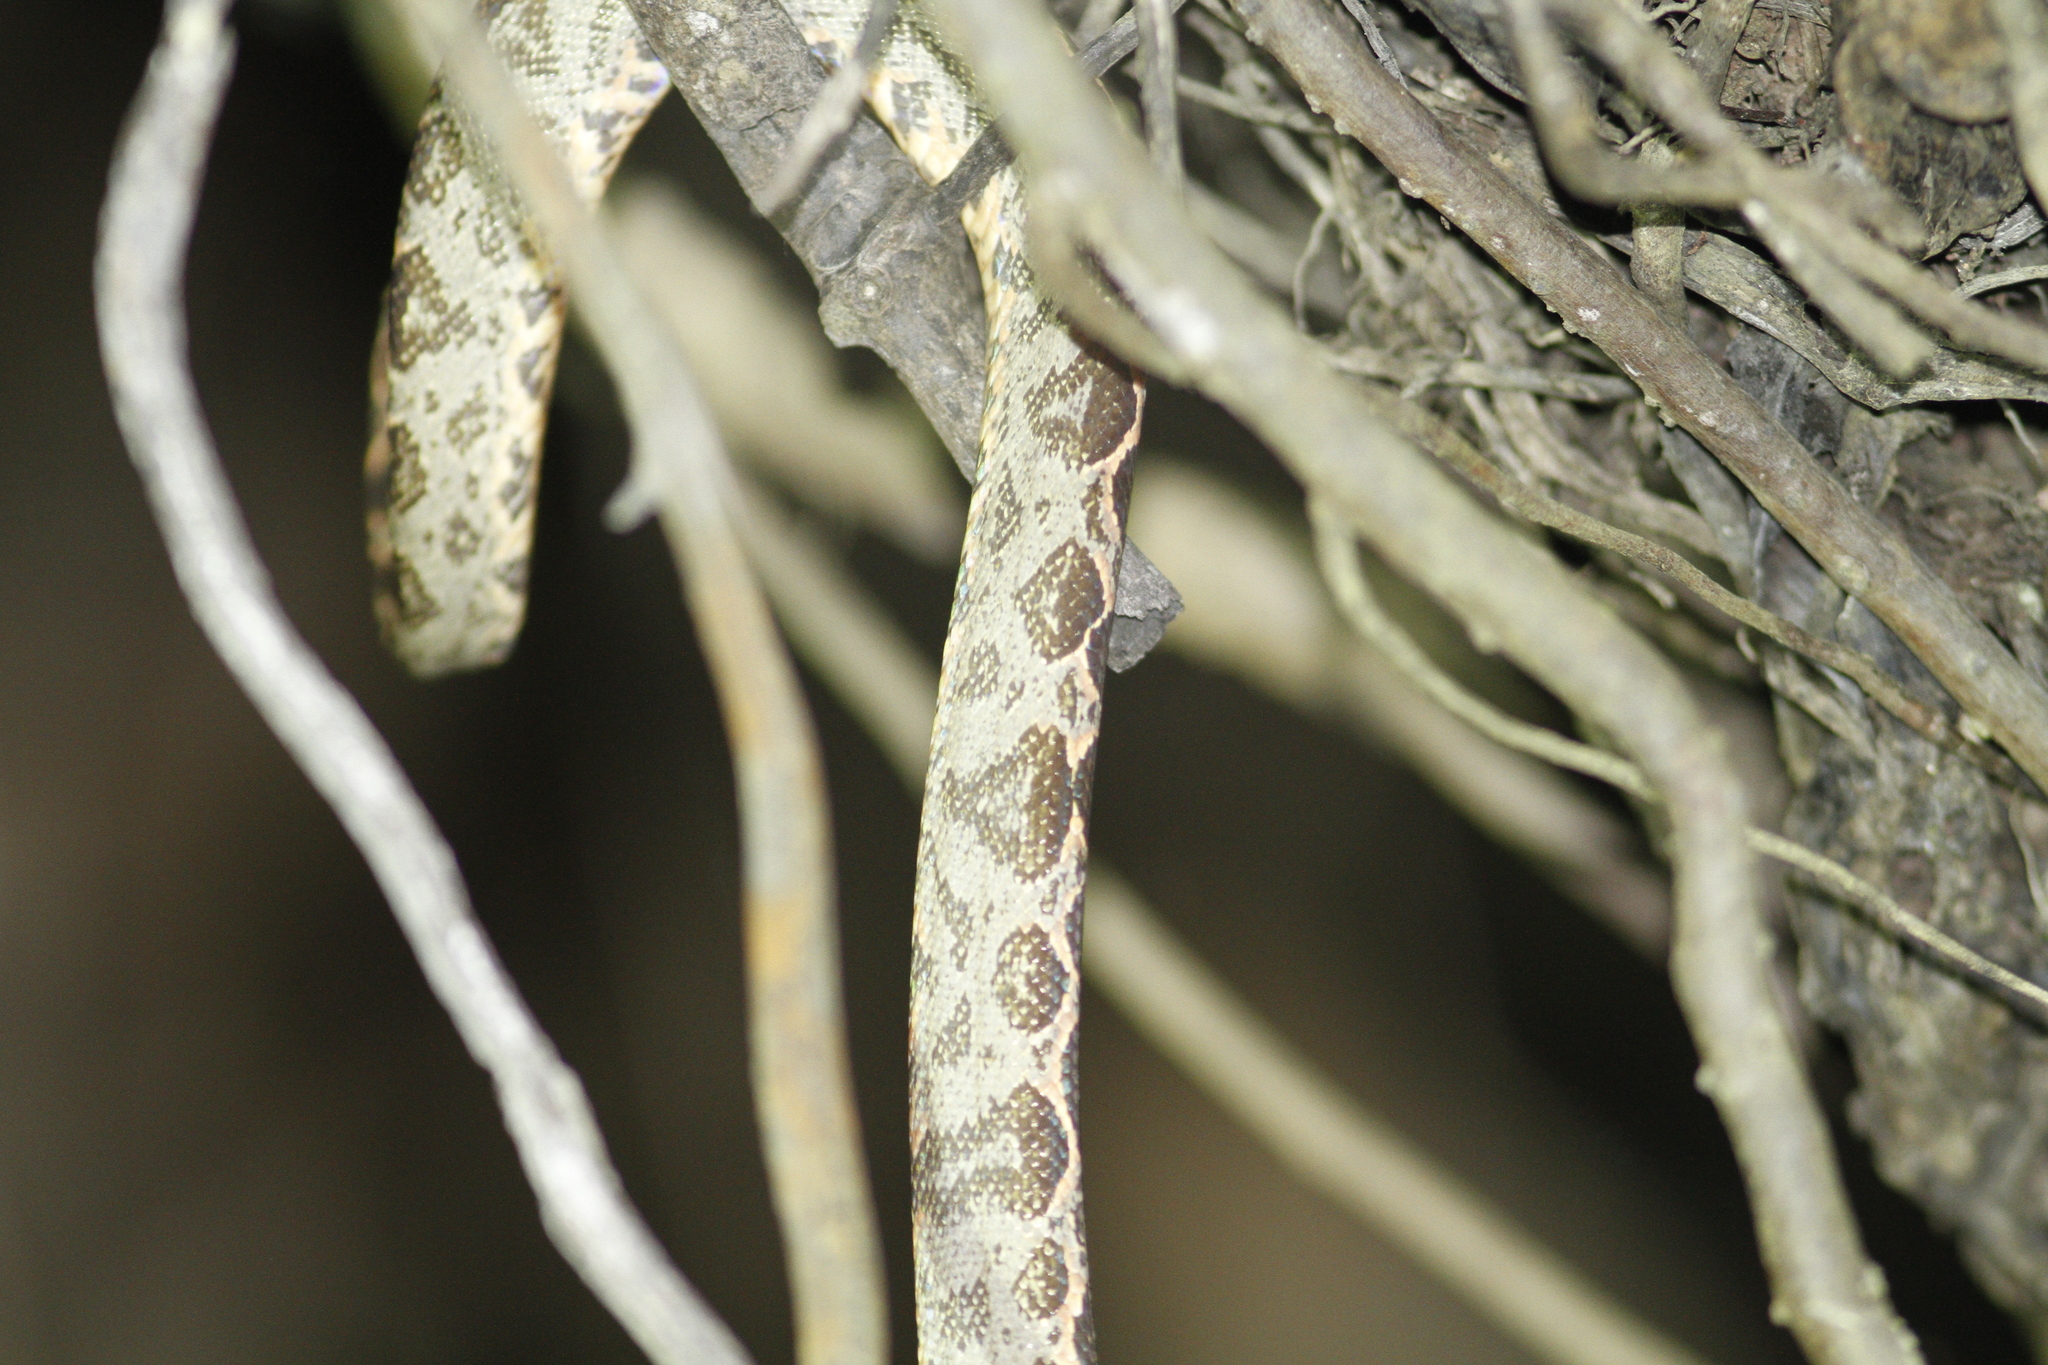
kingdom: Animalia
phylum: Chordata
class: Squamata
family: Boidae
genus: Corallus
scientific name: Corallus hortulana
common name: Garden tree boa
